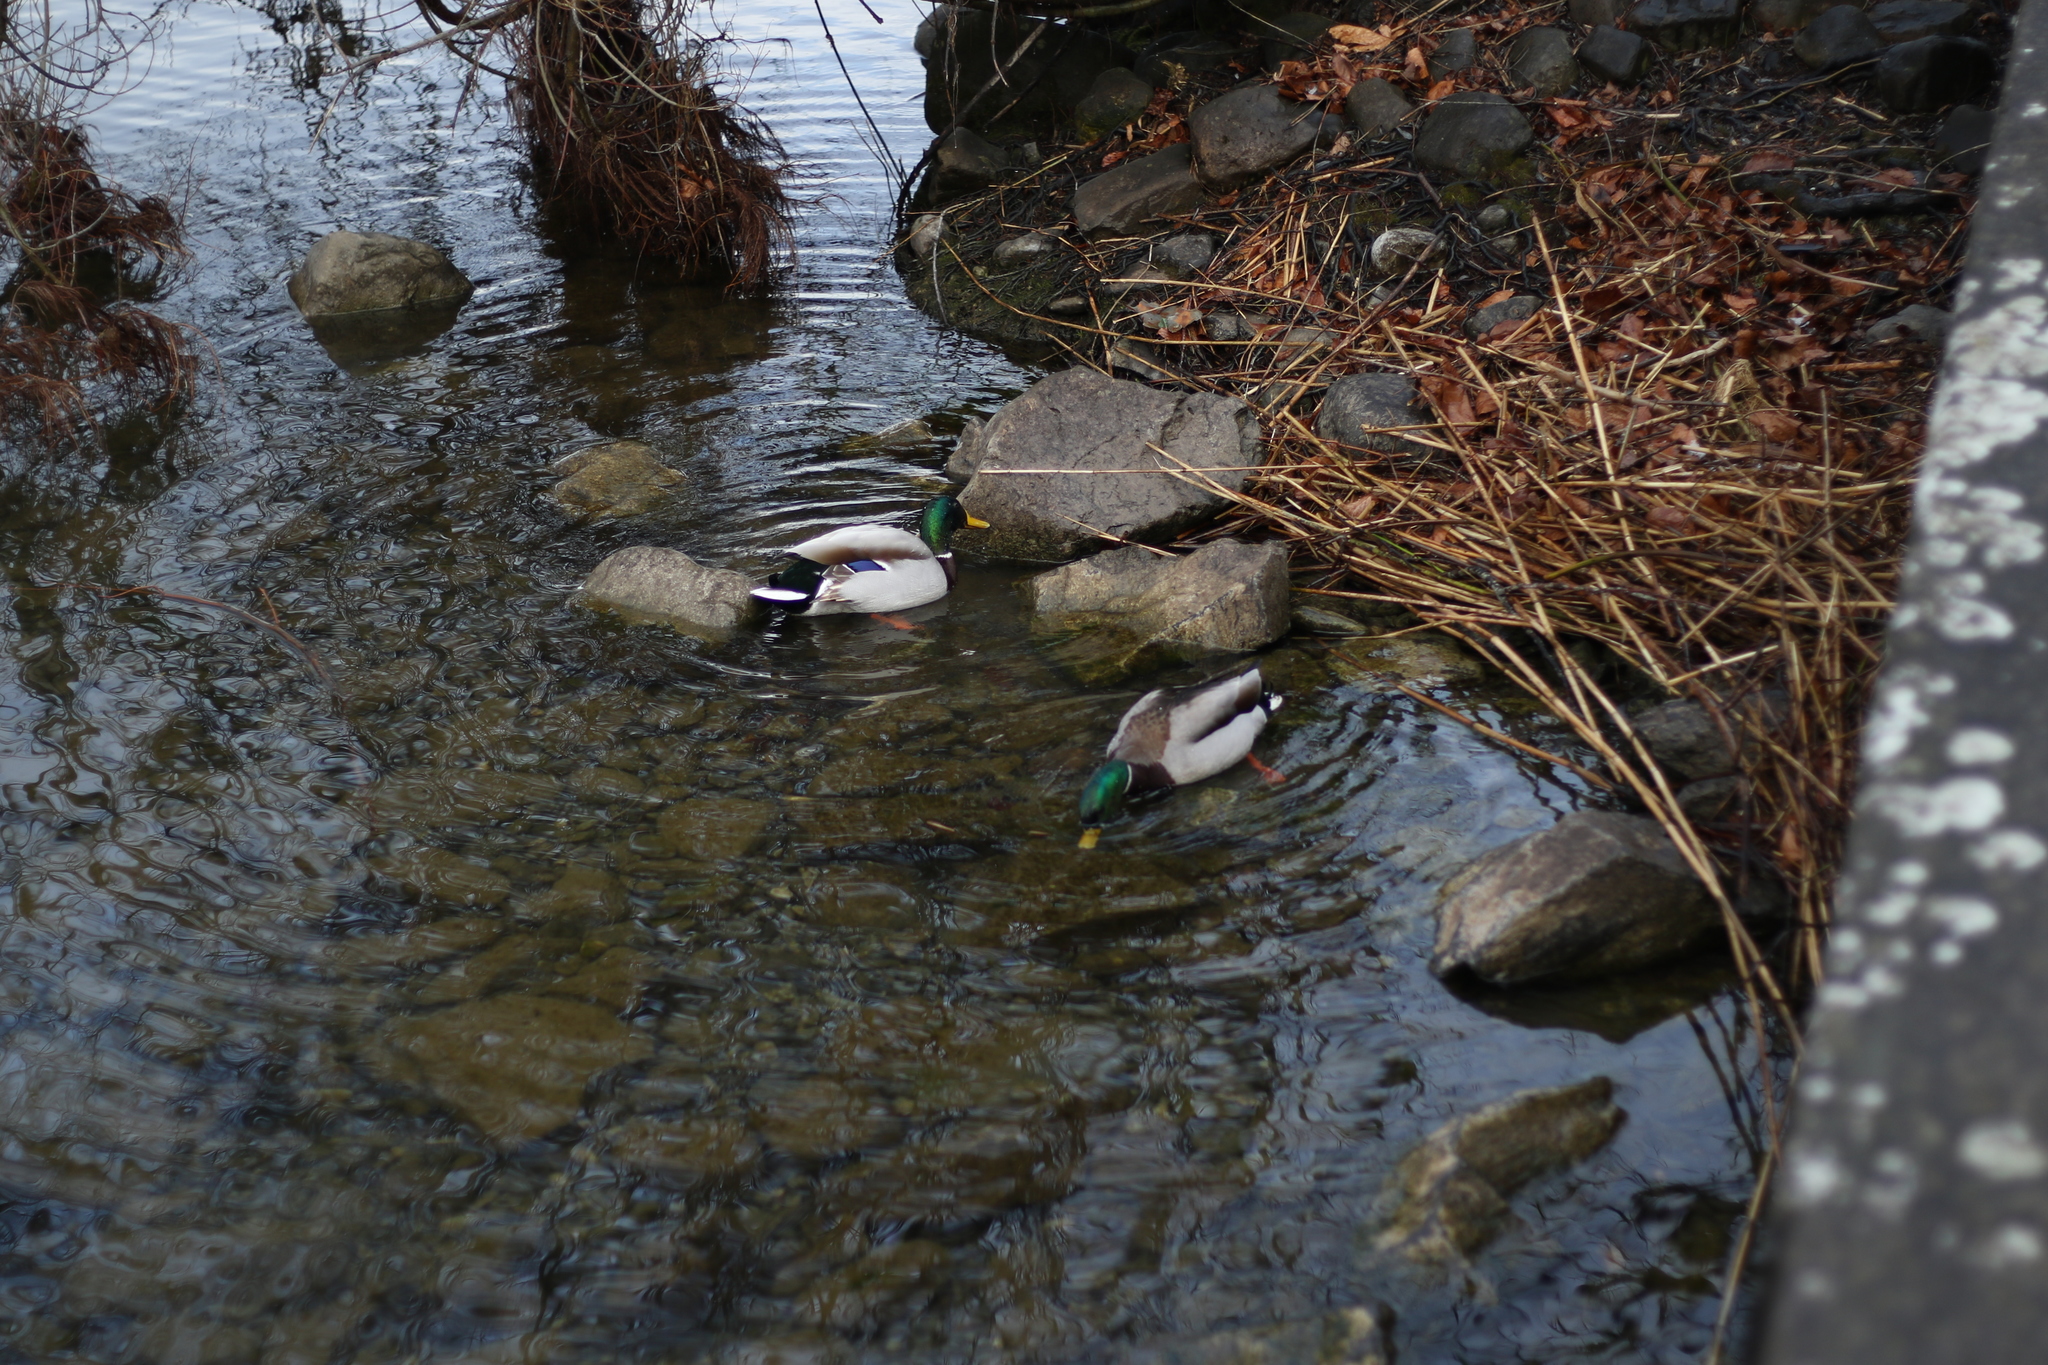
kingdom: Animalia
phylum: Chordata
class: Aves
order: Anseriformes
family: Anatidae
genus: Anas
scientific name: Anas platyrhynchos
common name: Mallard
